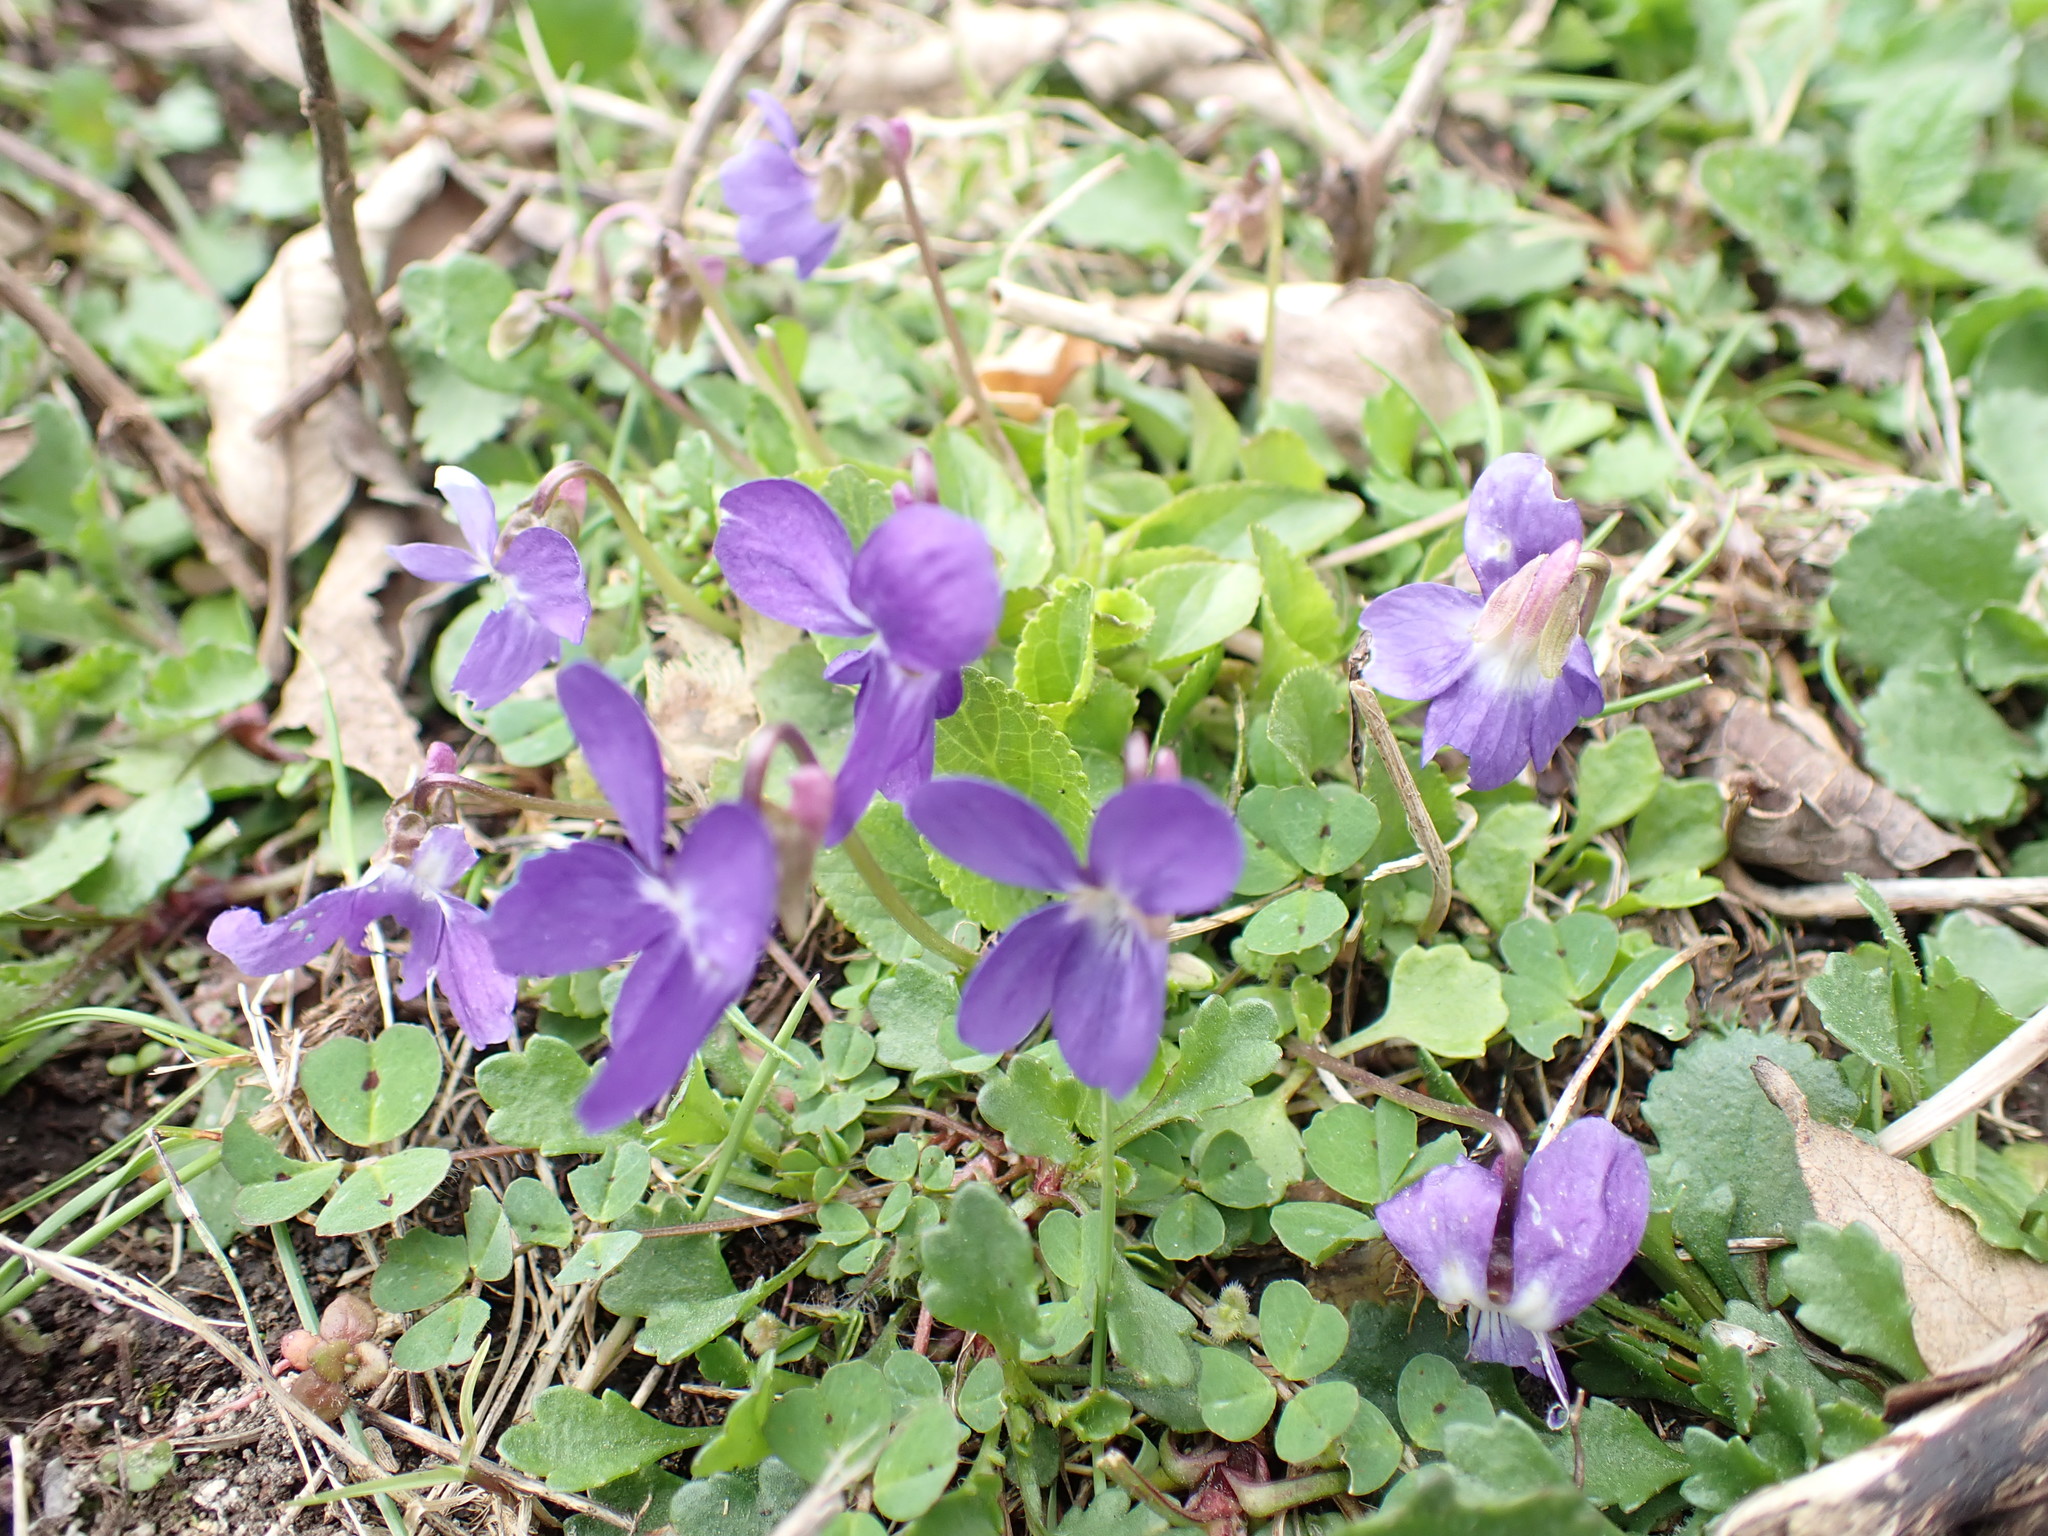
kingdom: Plantae
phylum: Tracheophyta
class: Magnoliopsida
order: Malpighiales
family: Violaceae
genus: Viola
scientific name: Viola odorata
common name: Sweet violet
